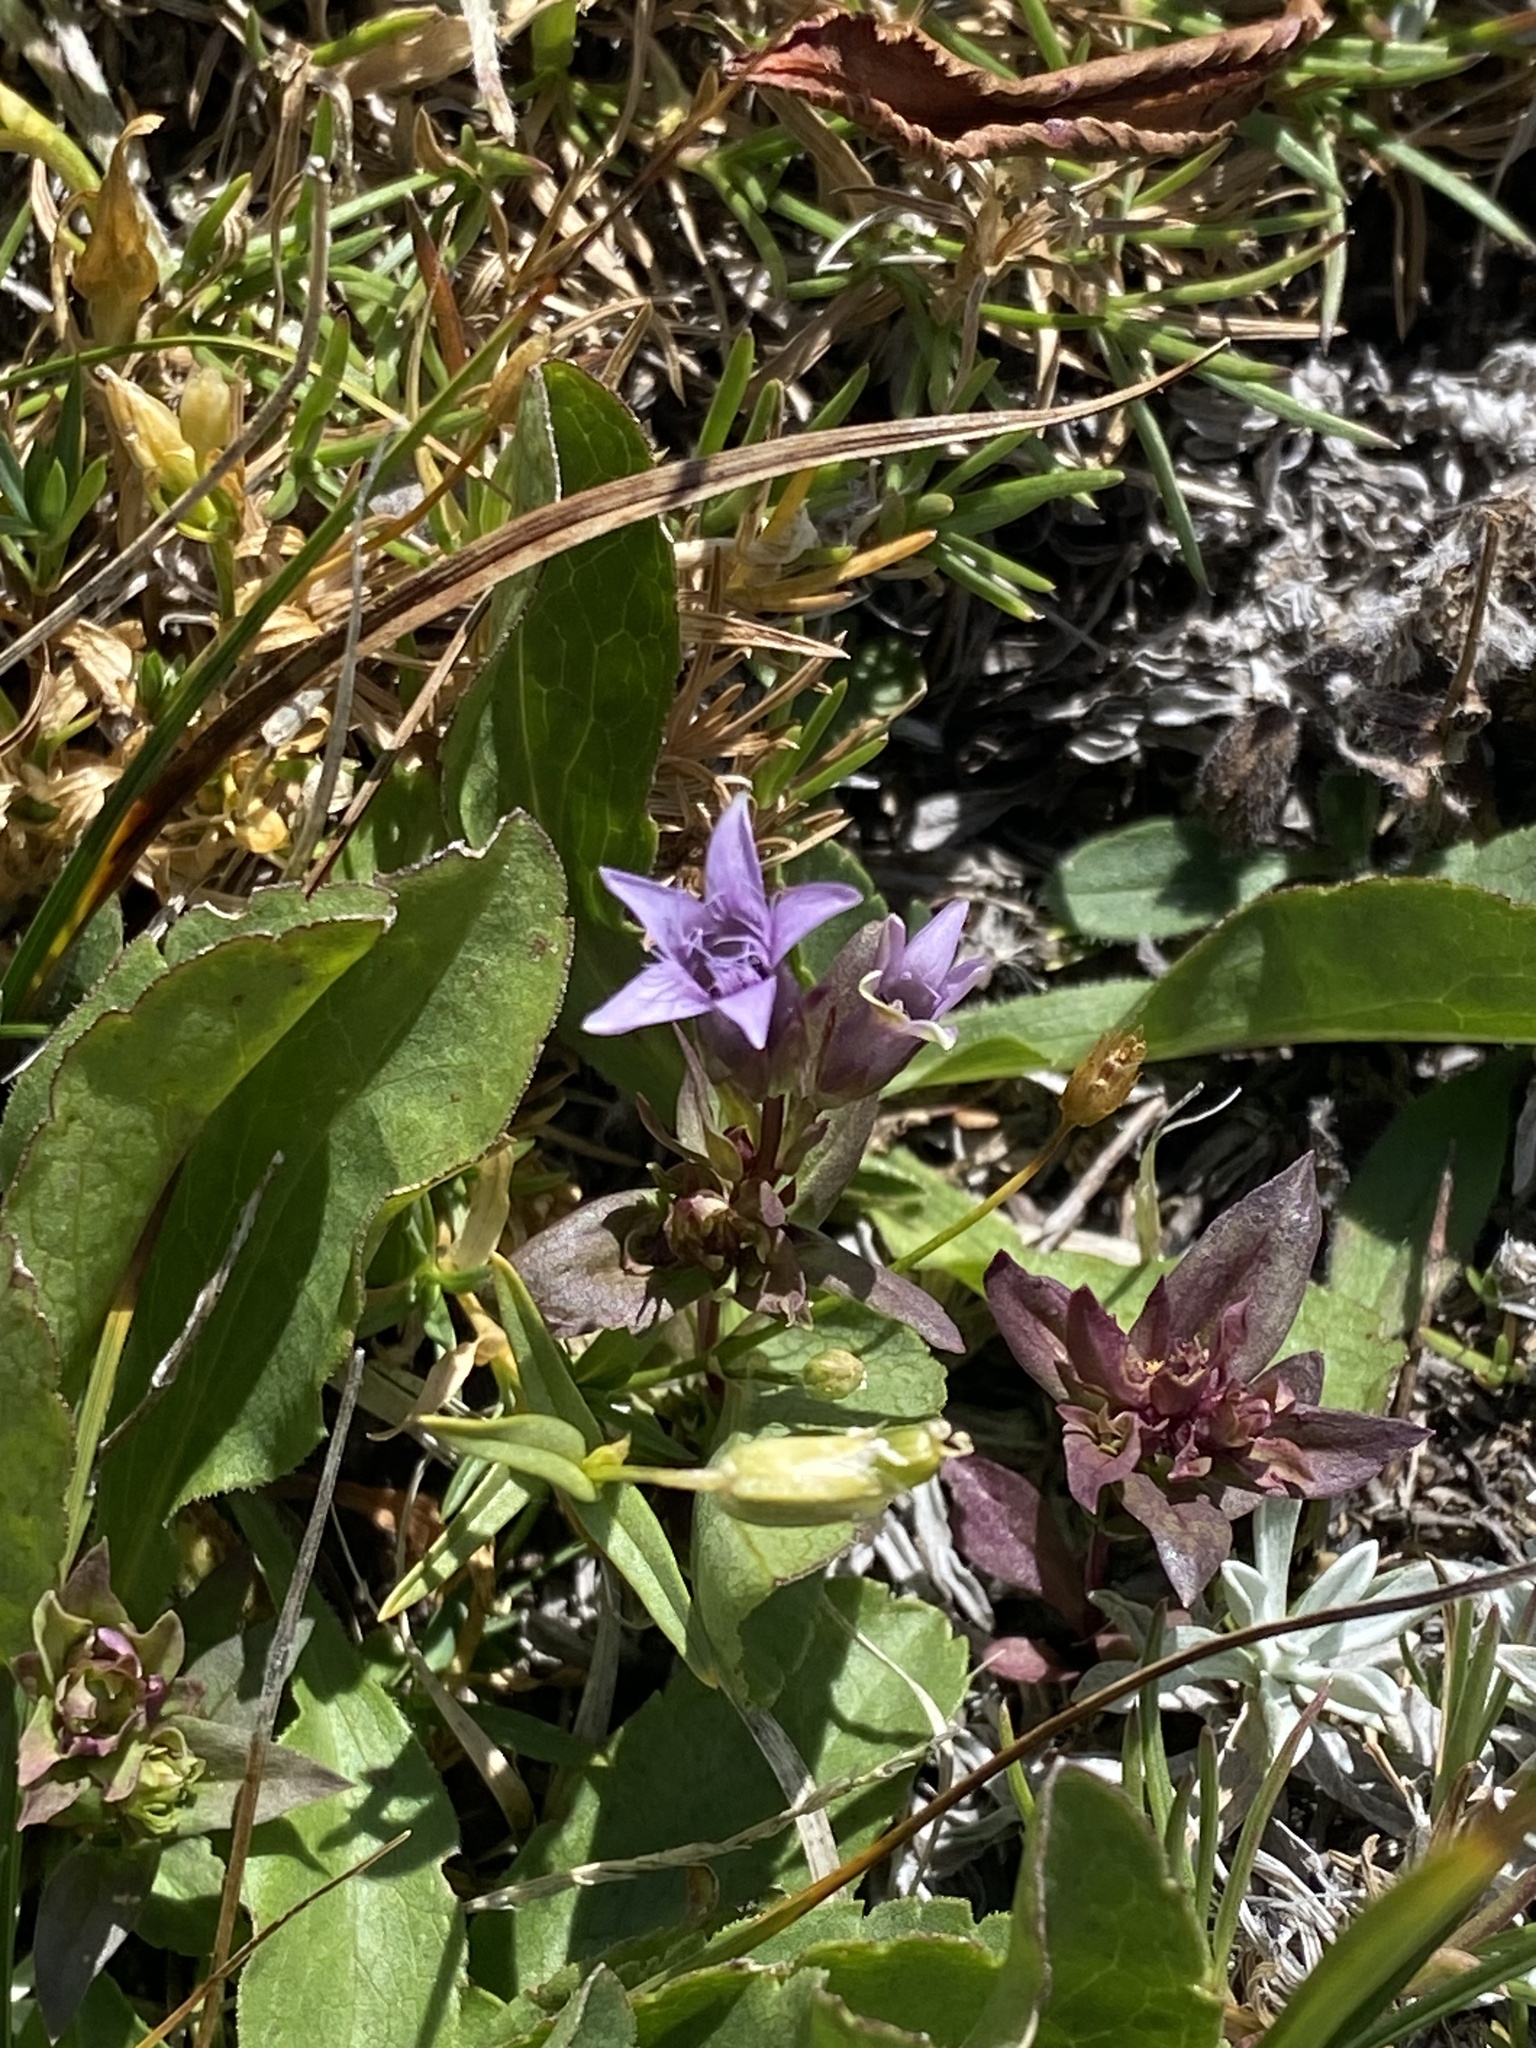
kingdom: Plantae
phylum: Tracheophyta
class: Magnoliopsida
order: Gentianales
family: Gentianaceae
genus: Gentianella
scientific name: Gentianella amarella
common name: Autumn gentian
